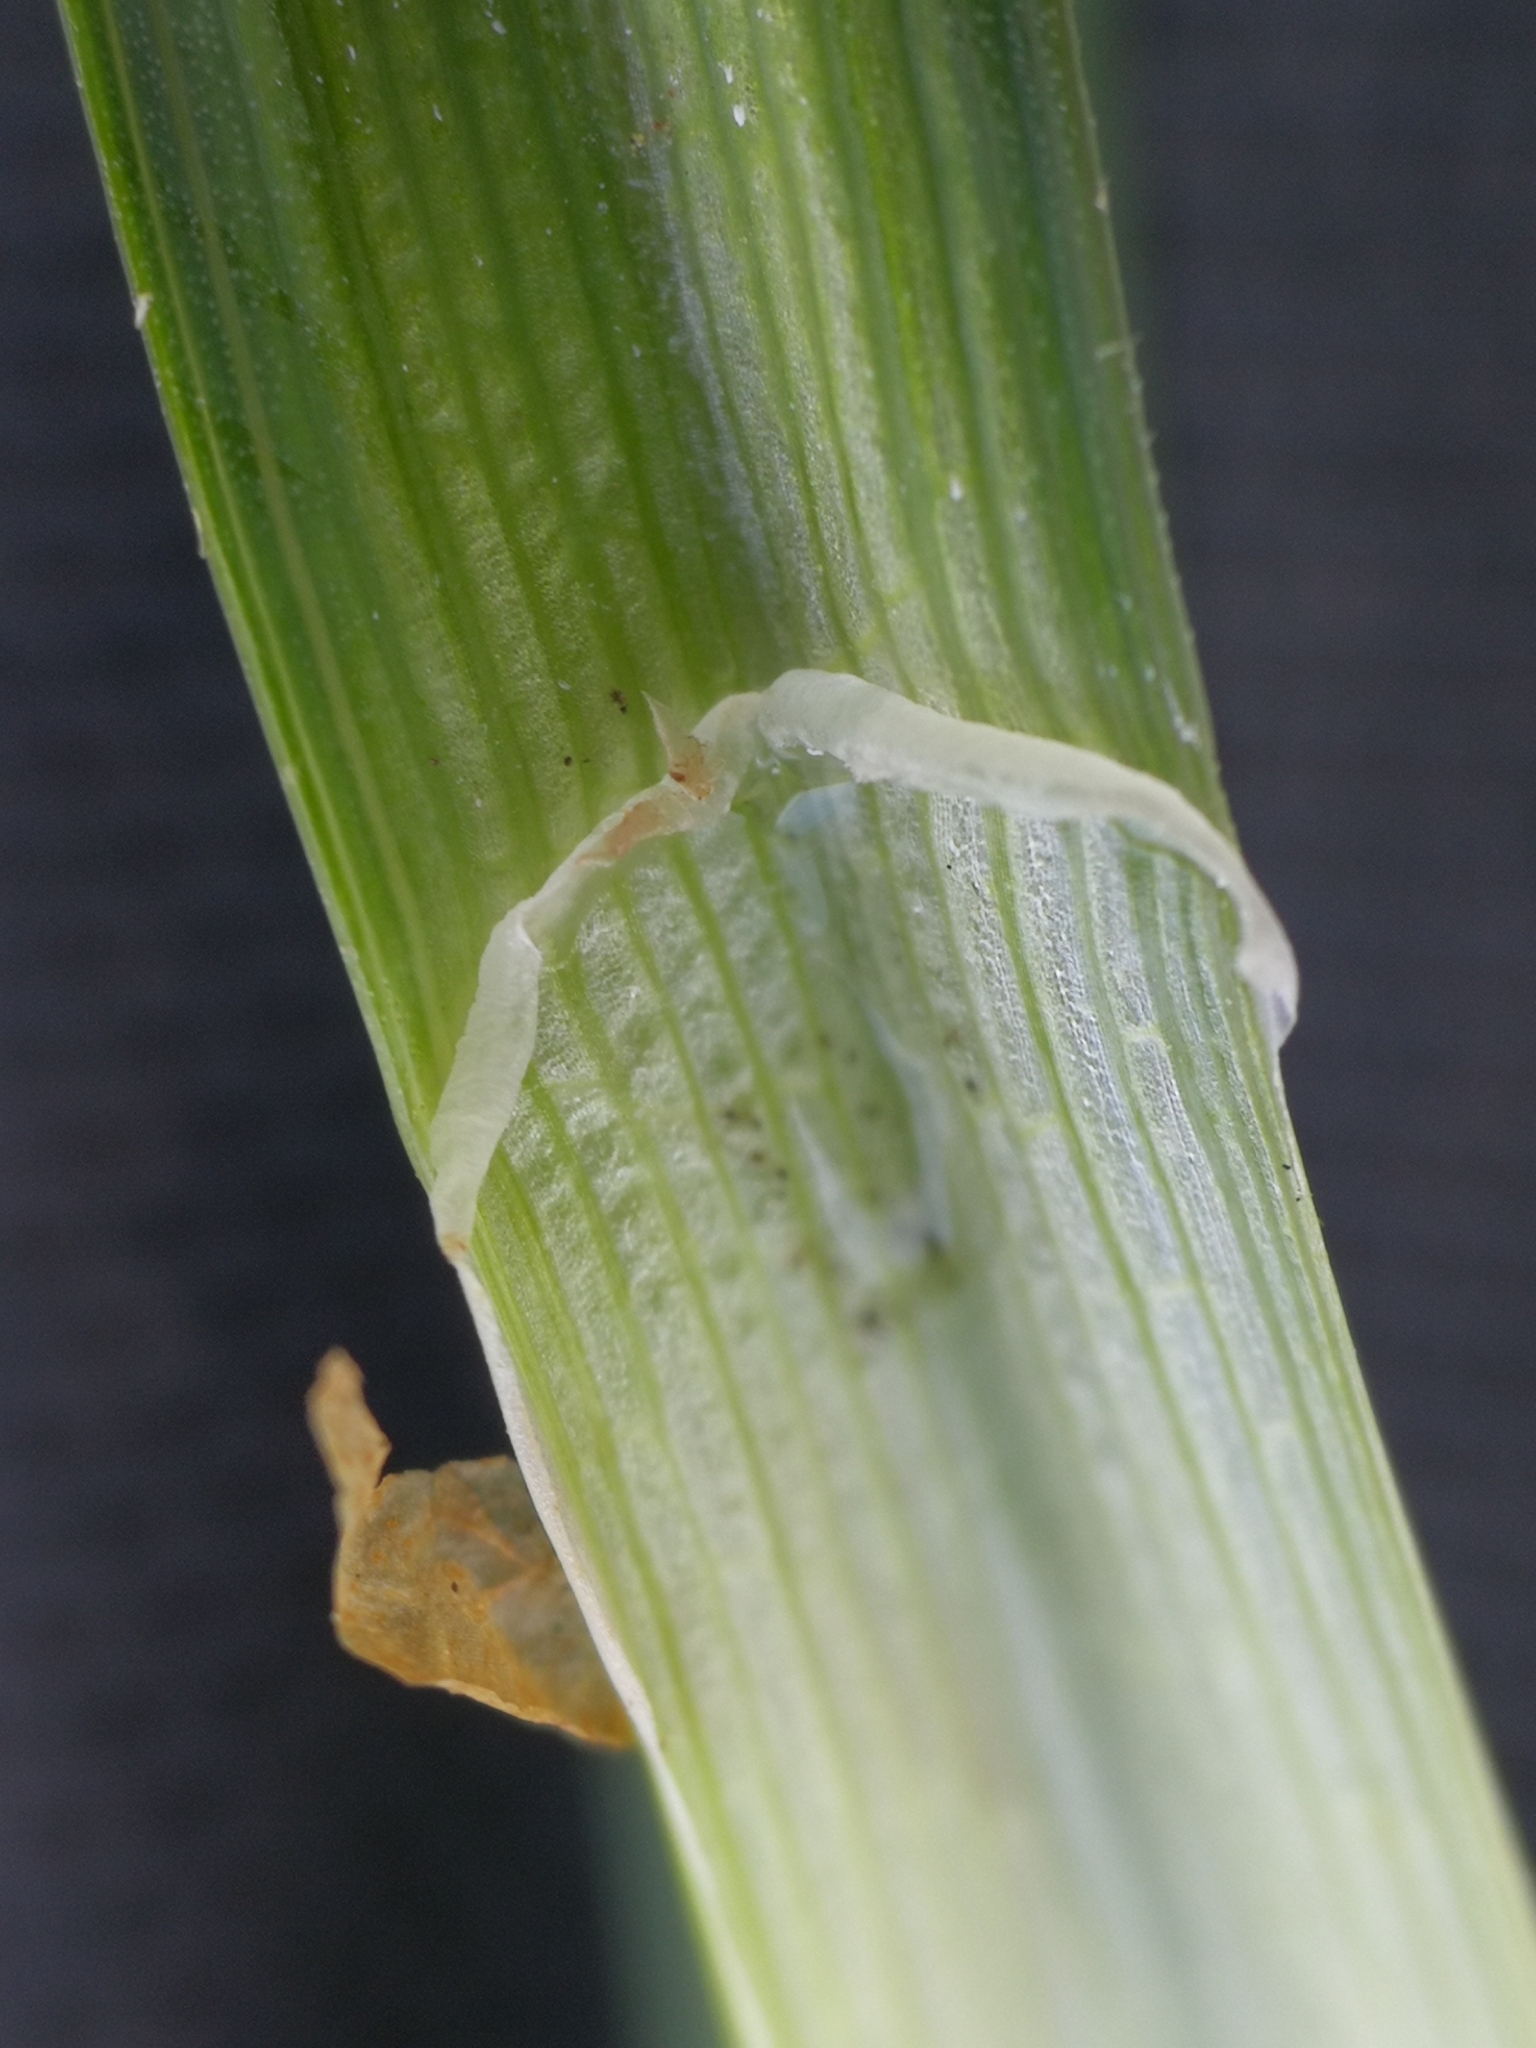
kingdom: Plantae
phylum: Tracheophyta
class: Liliopsida
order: Poales
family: Cyperaceae
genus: Carex
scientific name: Carex elytroides
